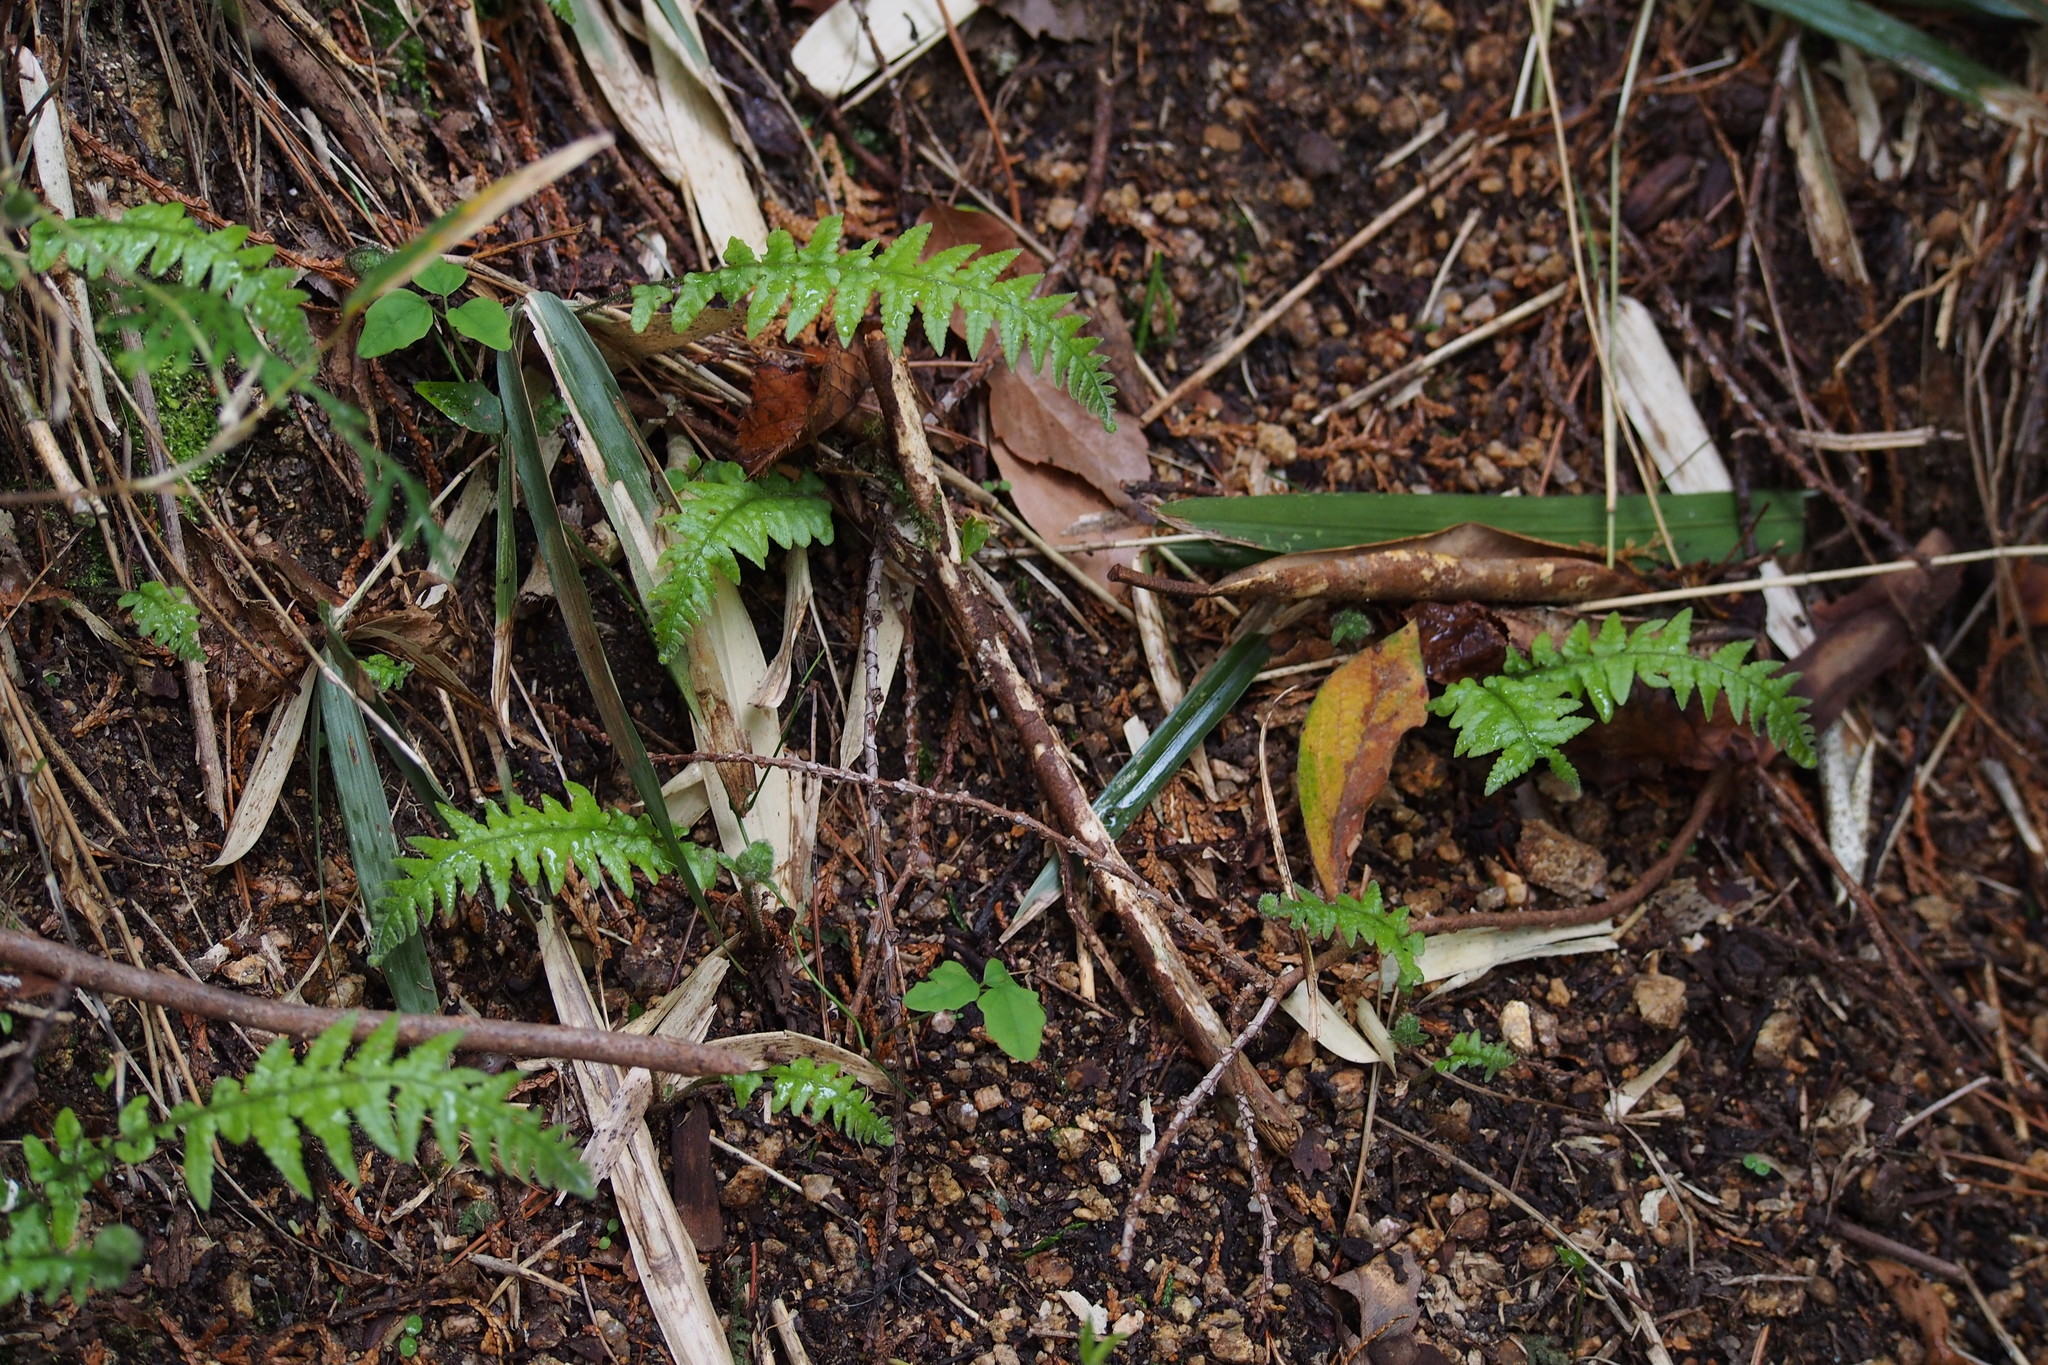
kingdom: Plantae
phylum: Tracheophyta
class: Polypodiopsida
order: Polypodiales
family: Thelypteridaceae
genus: Phegopteris
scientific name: Phegopteris decursive-pinnata
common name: Japanese beech fern
